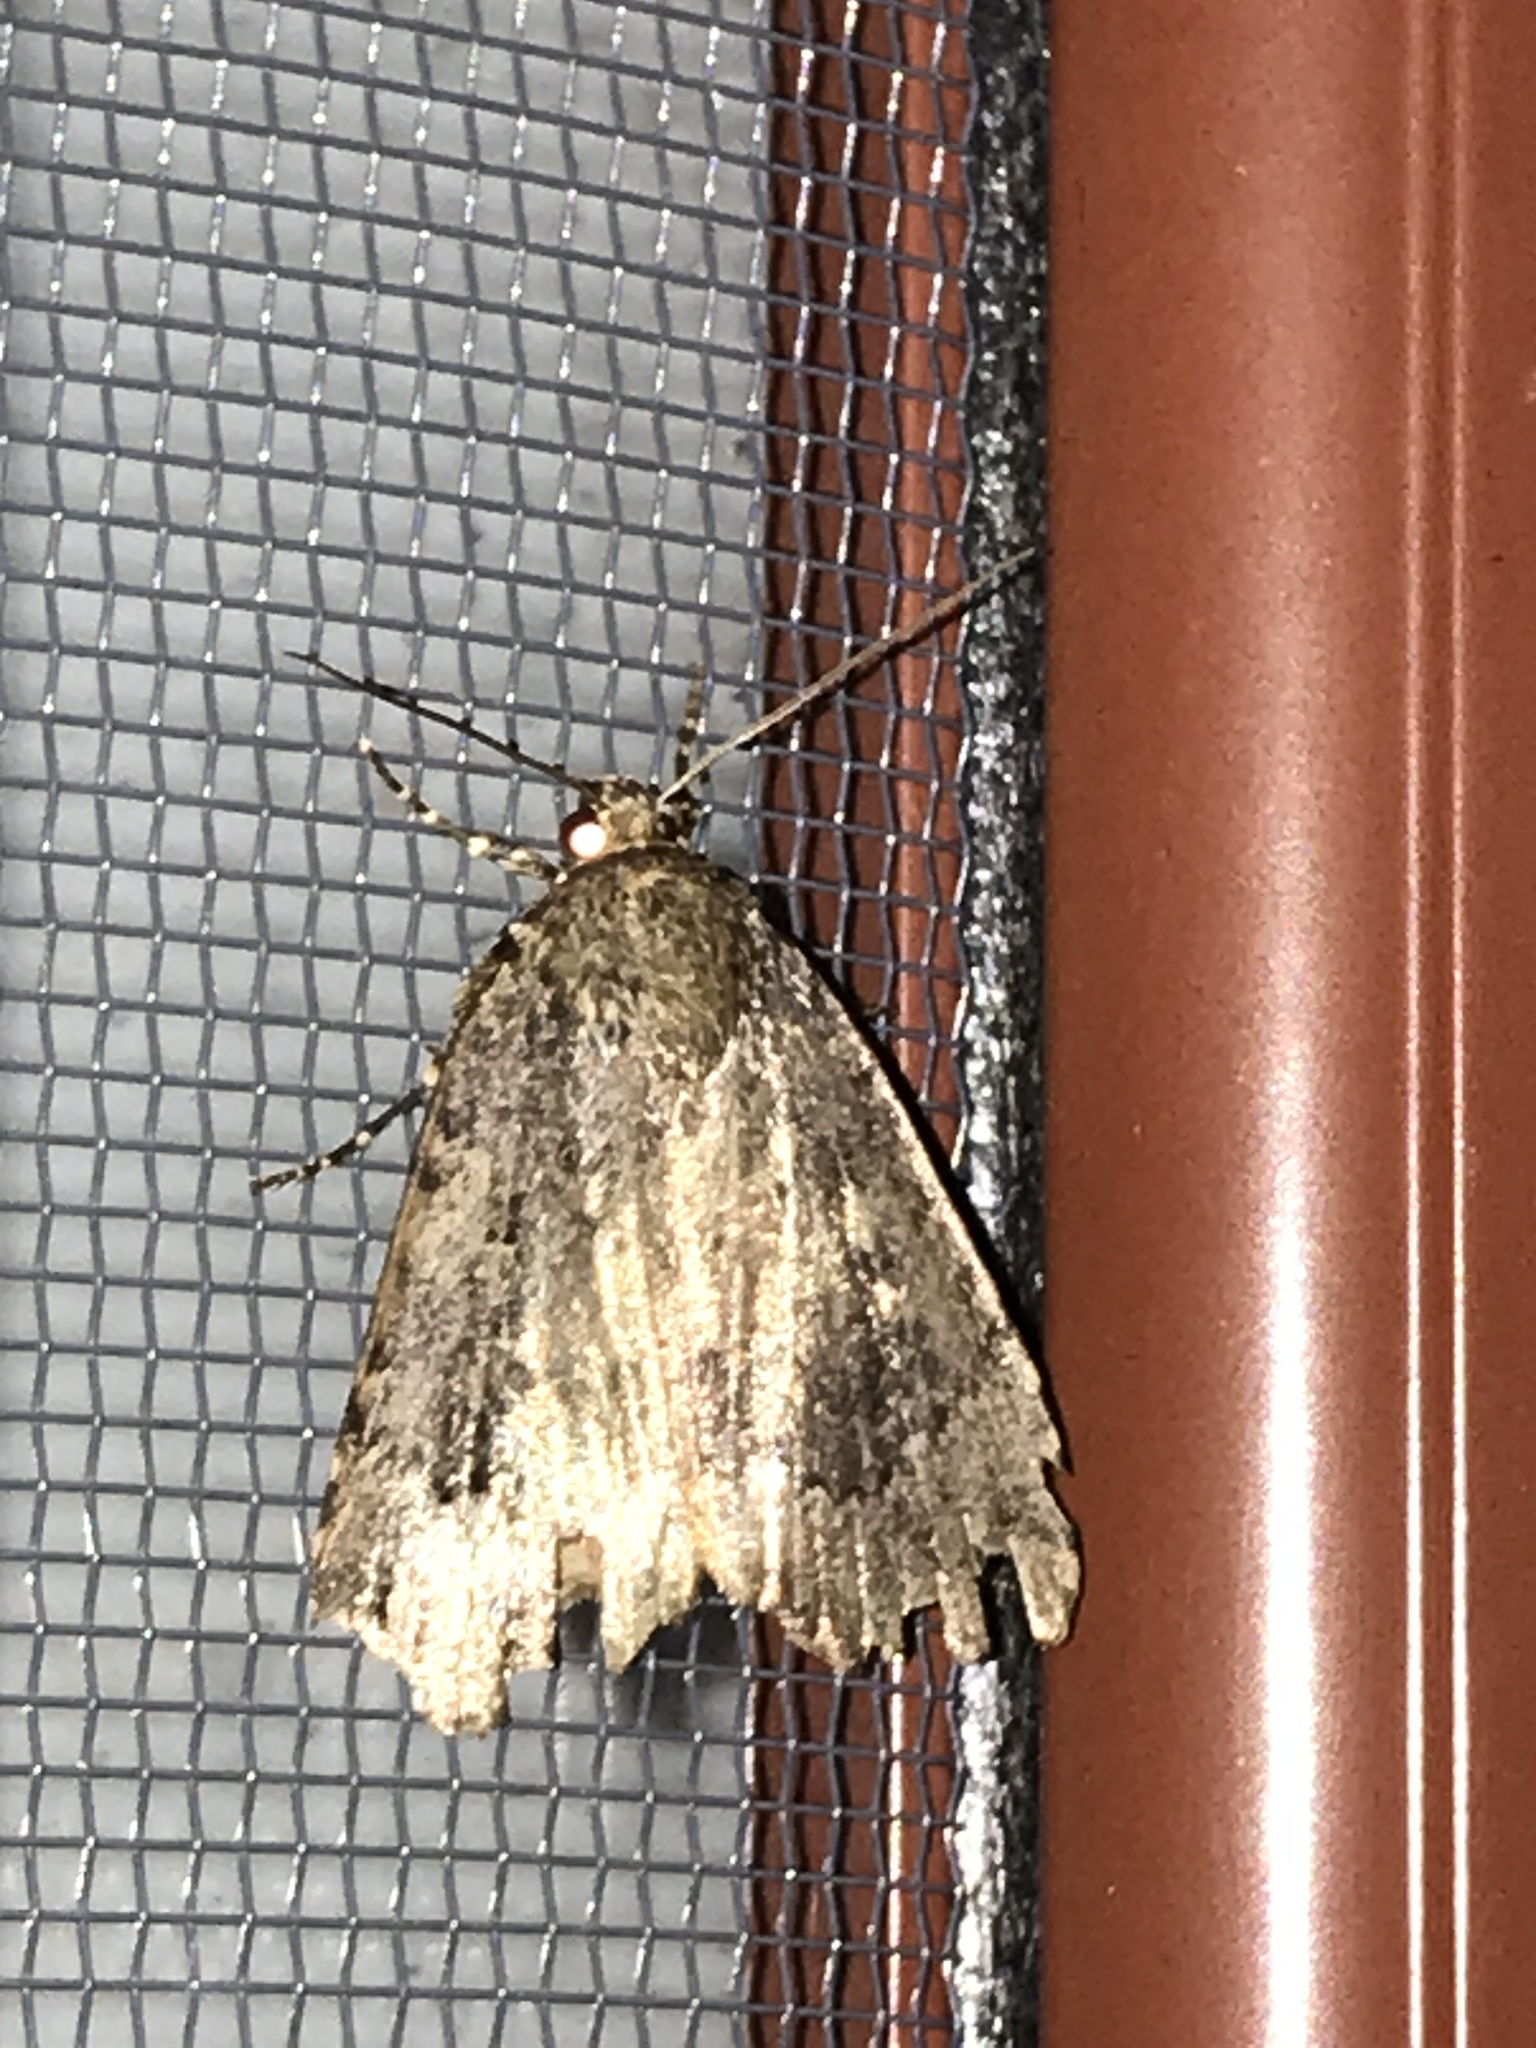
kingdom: Animalia
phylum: Arthropoda
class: Insecta
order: Lepidoptera
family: Noctuidae
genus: Amphipyra
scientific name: Amphipyra pyramidoides
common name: American copper underwing
